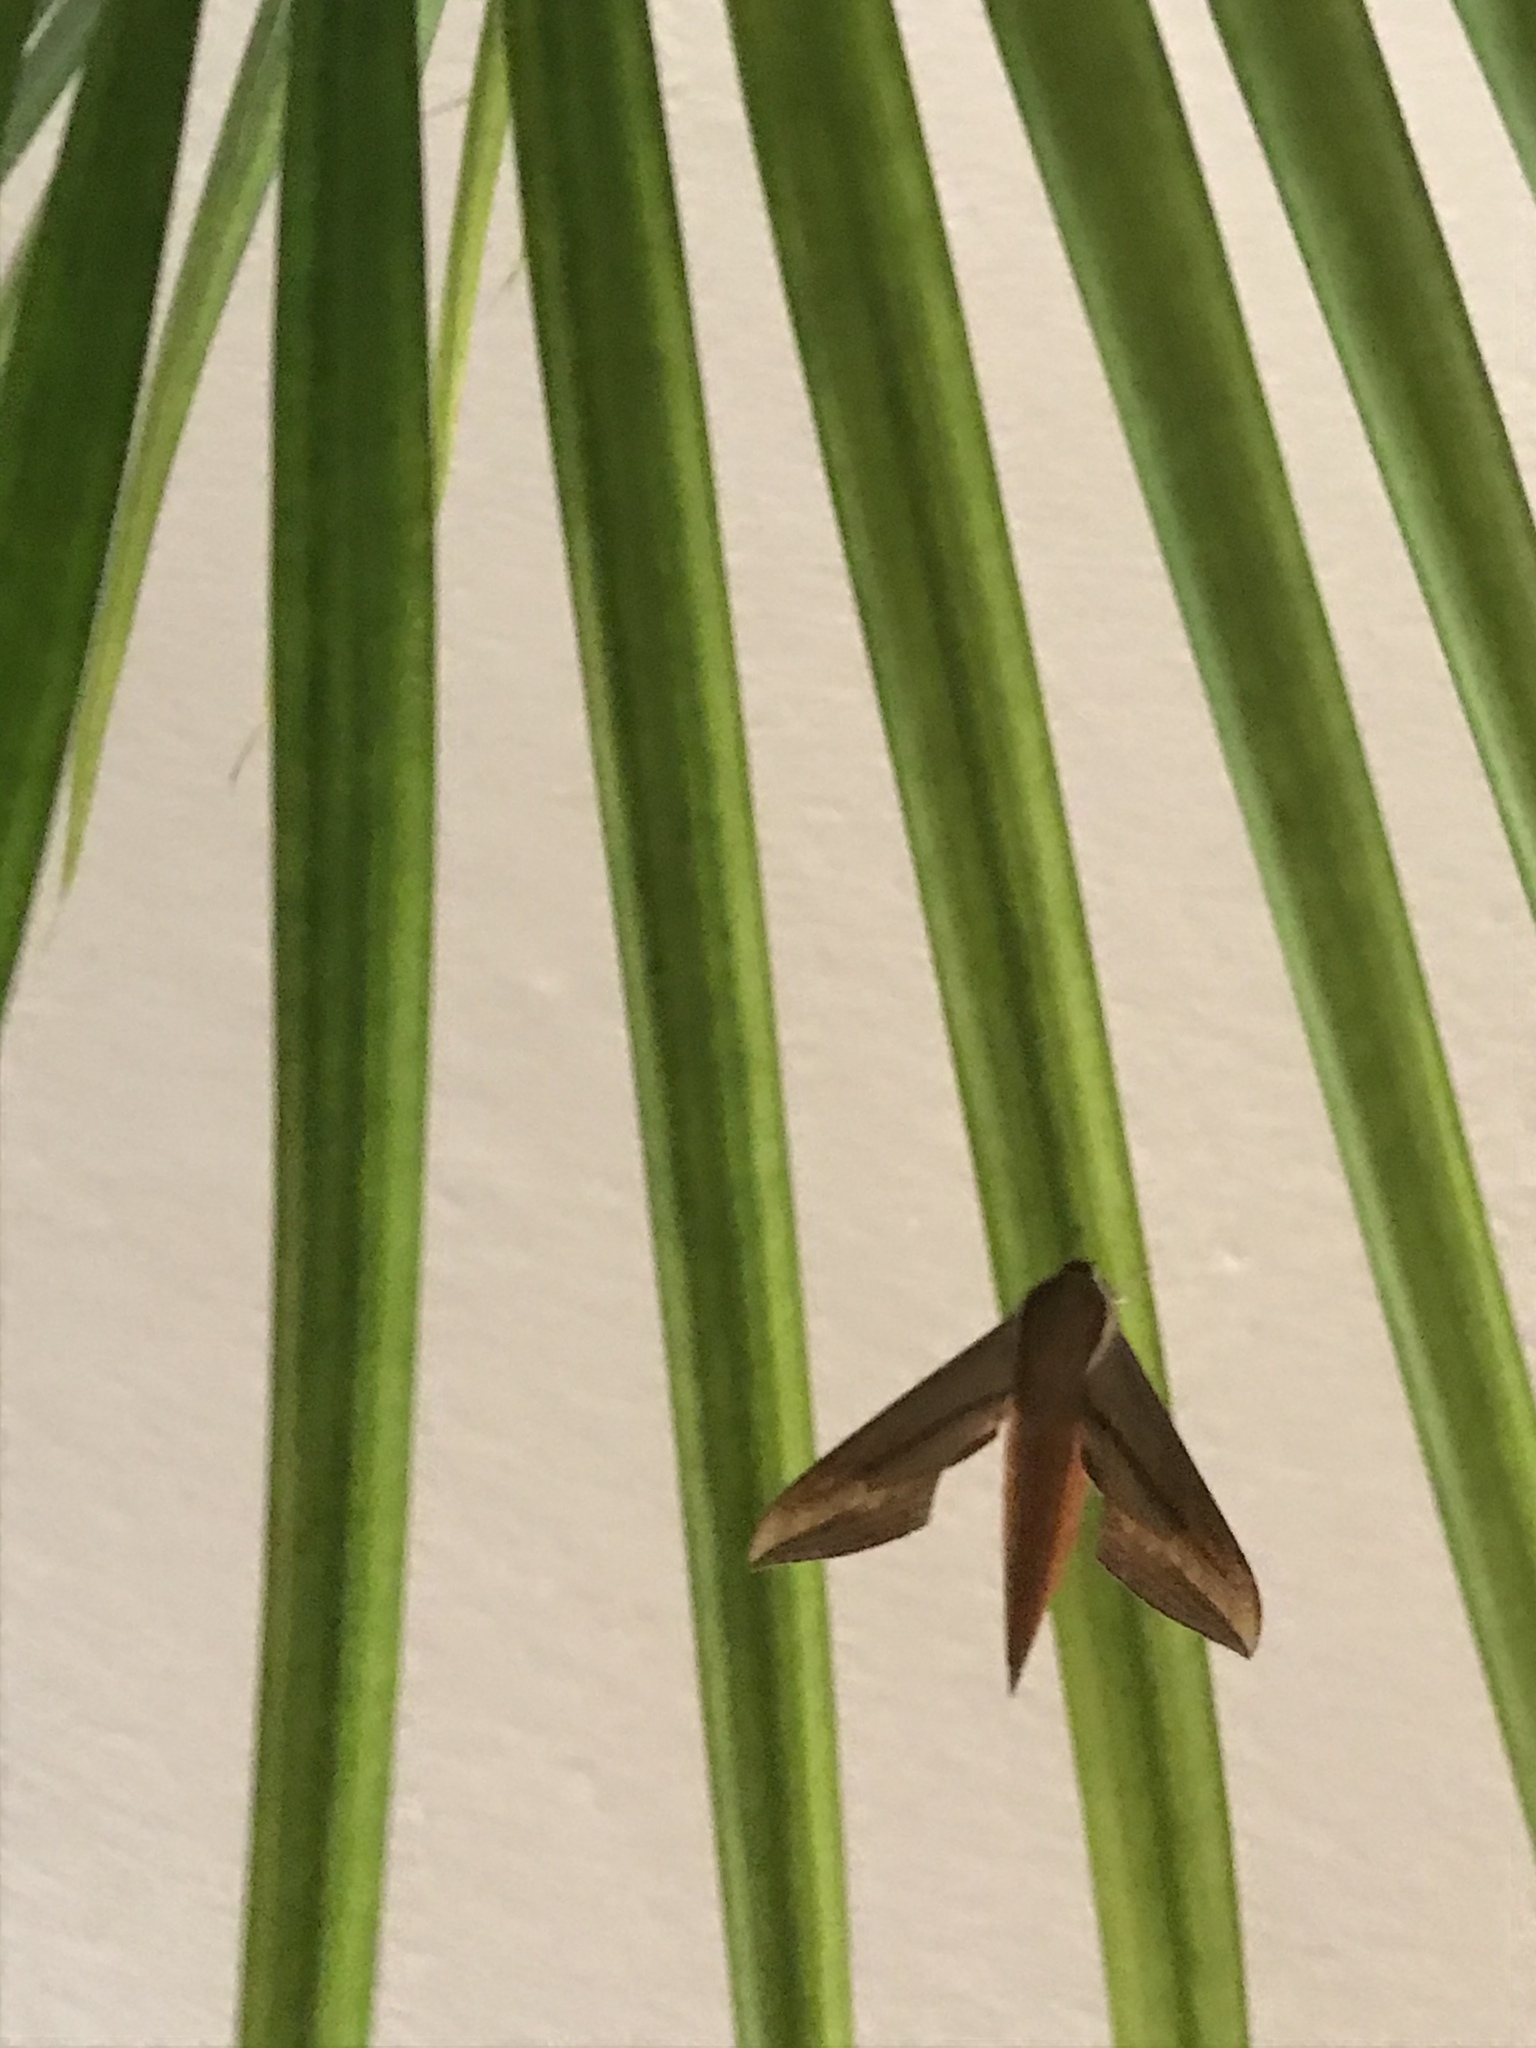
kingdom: Animalia
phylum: Arthropoda
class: Insecta
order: Lepidoptera
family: Sphingidae
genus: Xylophanes
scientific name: Xylophanes tersa
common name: Tersa sphinx
